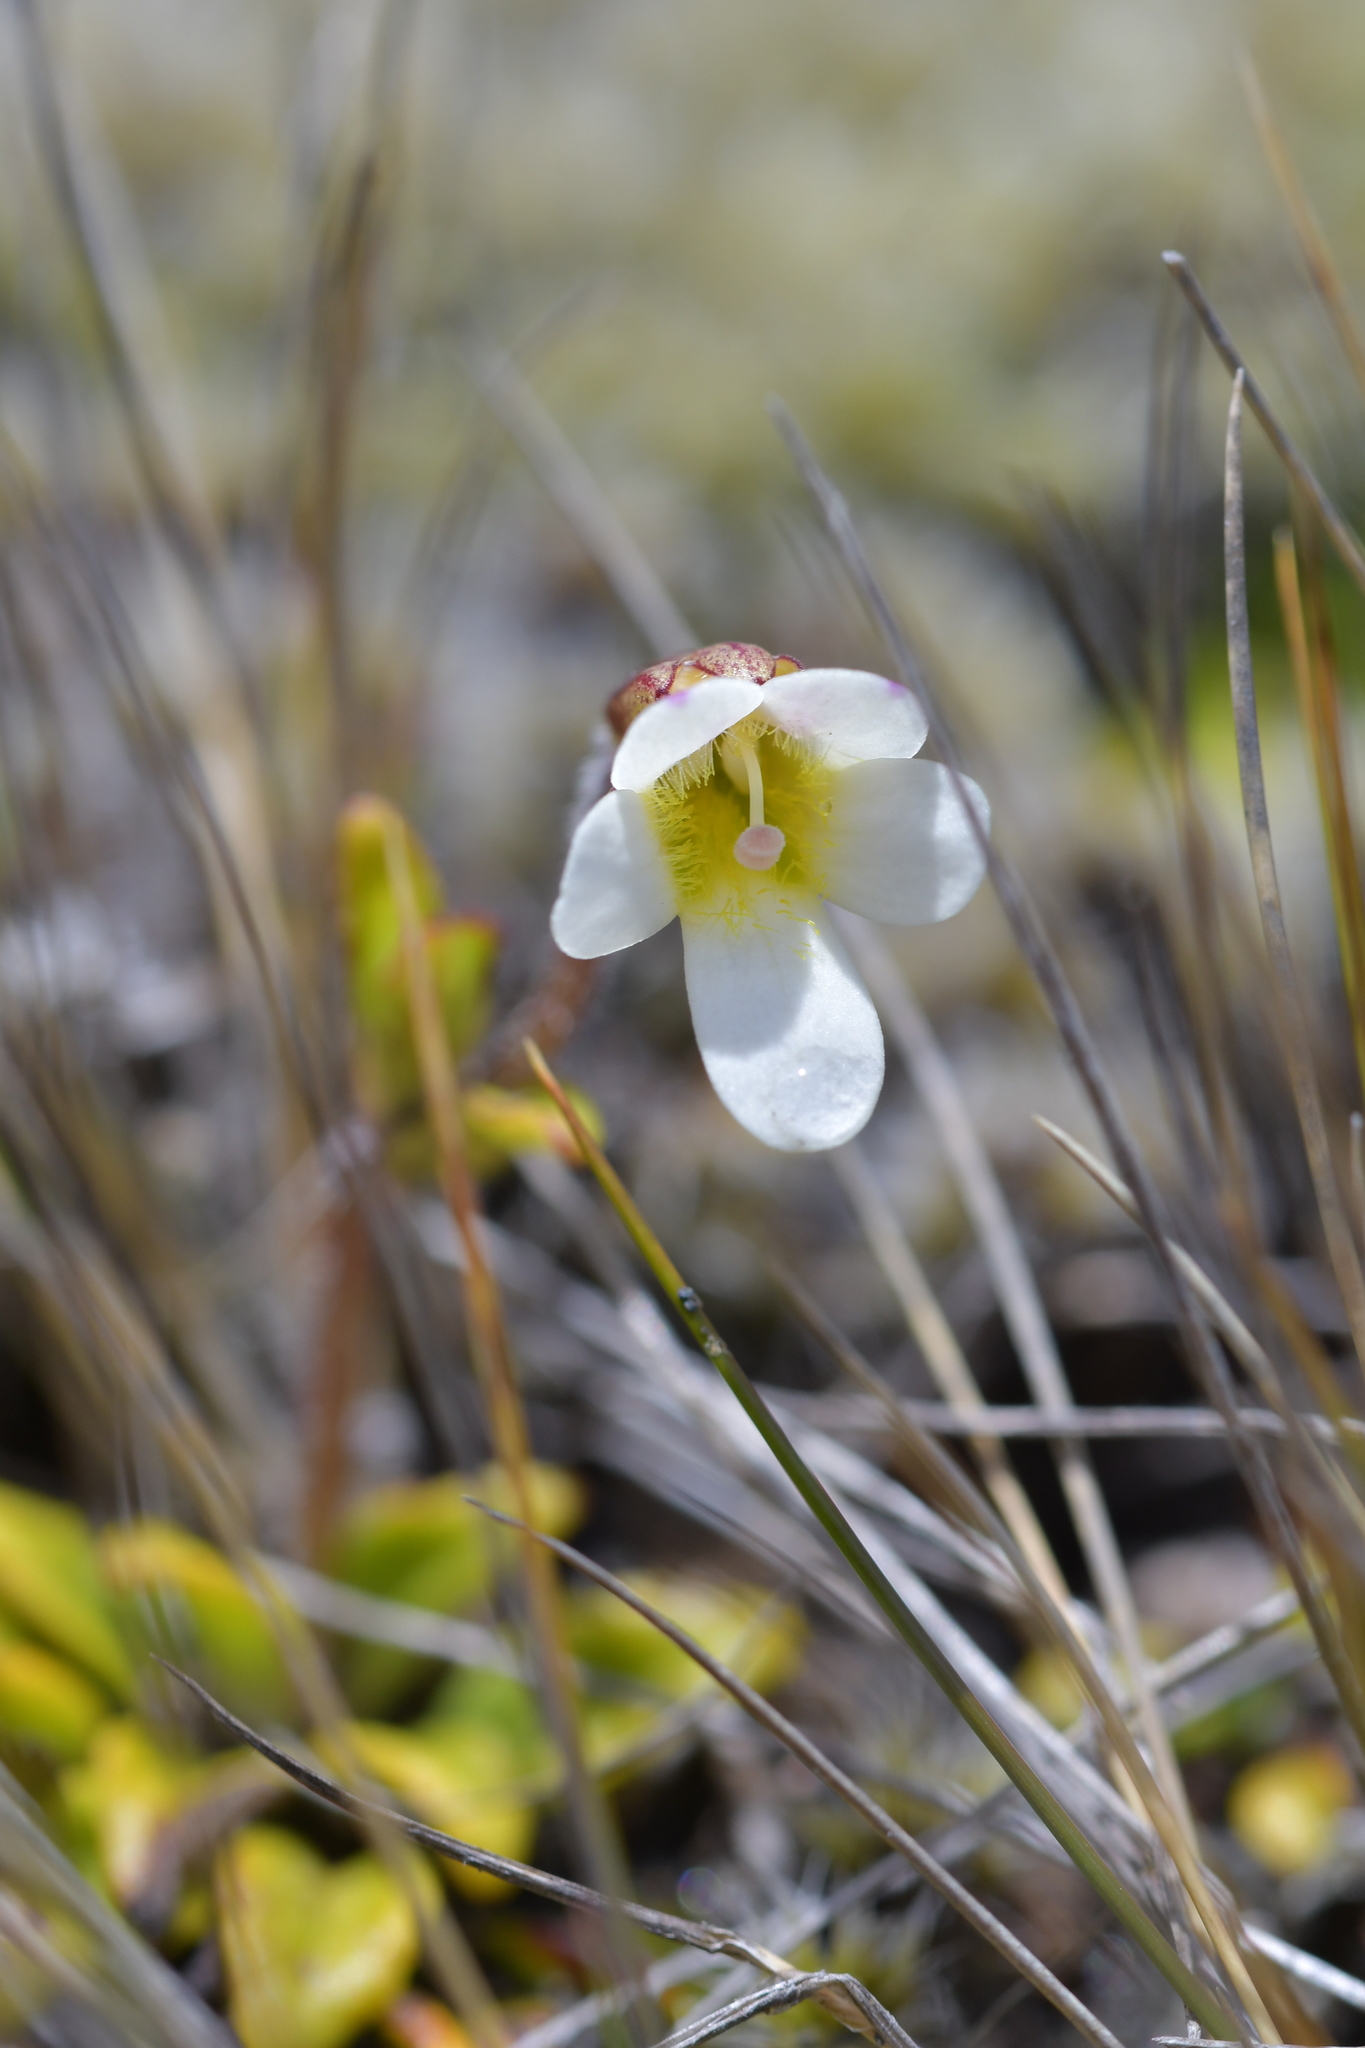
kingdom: Plantae
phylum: Tracheophyta
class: Magnoliopsida
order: Lamiales
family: Plantaginaceae
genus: Ourisia
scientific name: Ourisia vulcanica
